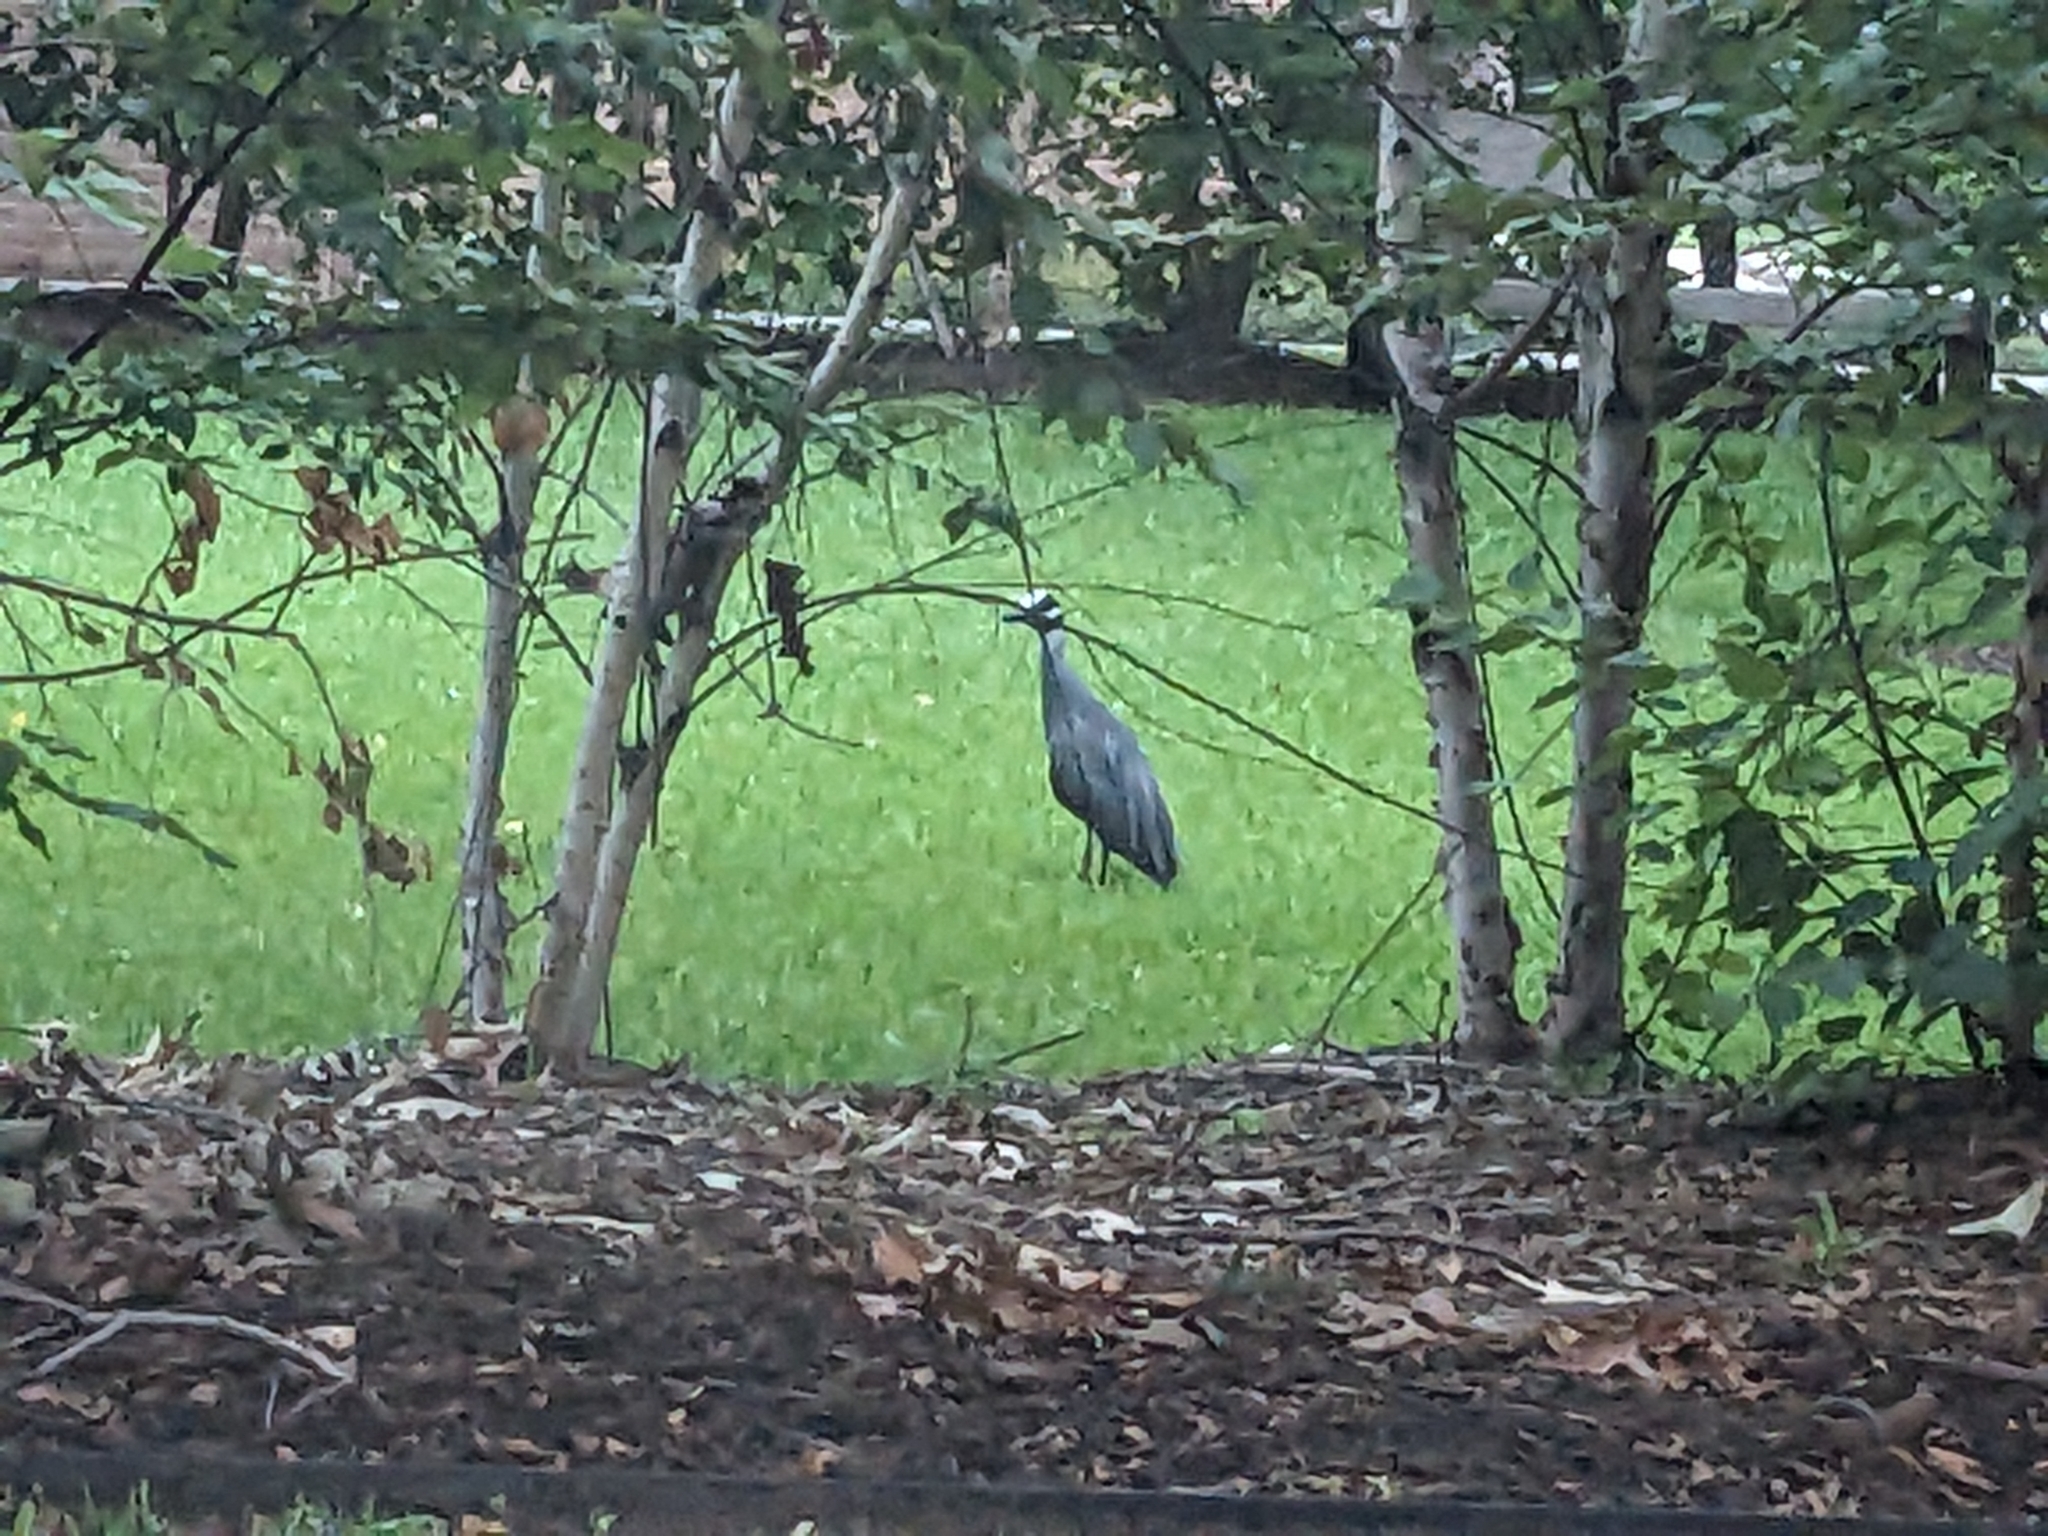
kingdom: Animalia
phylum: Chordata
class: Aves
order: Pelecaniformes
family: Ardeidae
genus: Nyctanassa
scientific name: Nyctanassa violacea
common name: Yellow-crowned night heron
